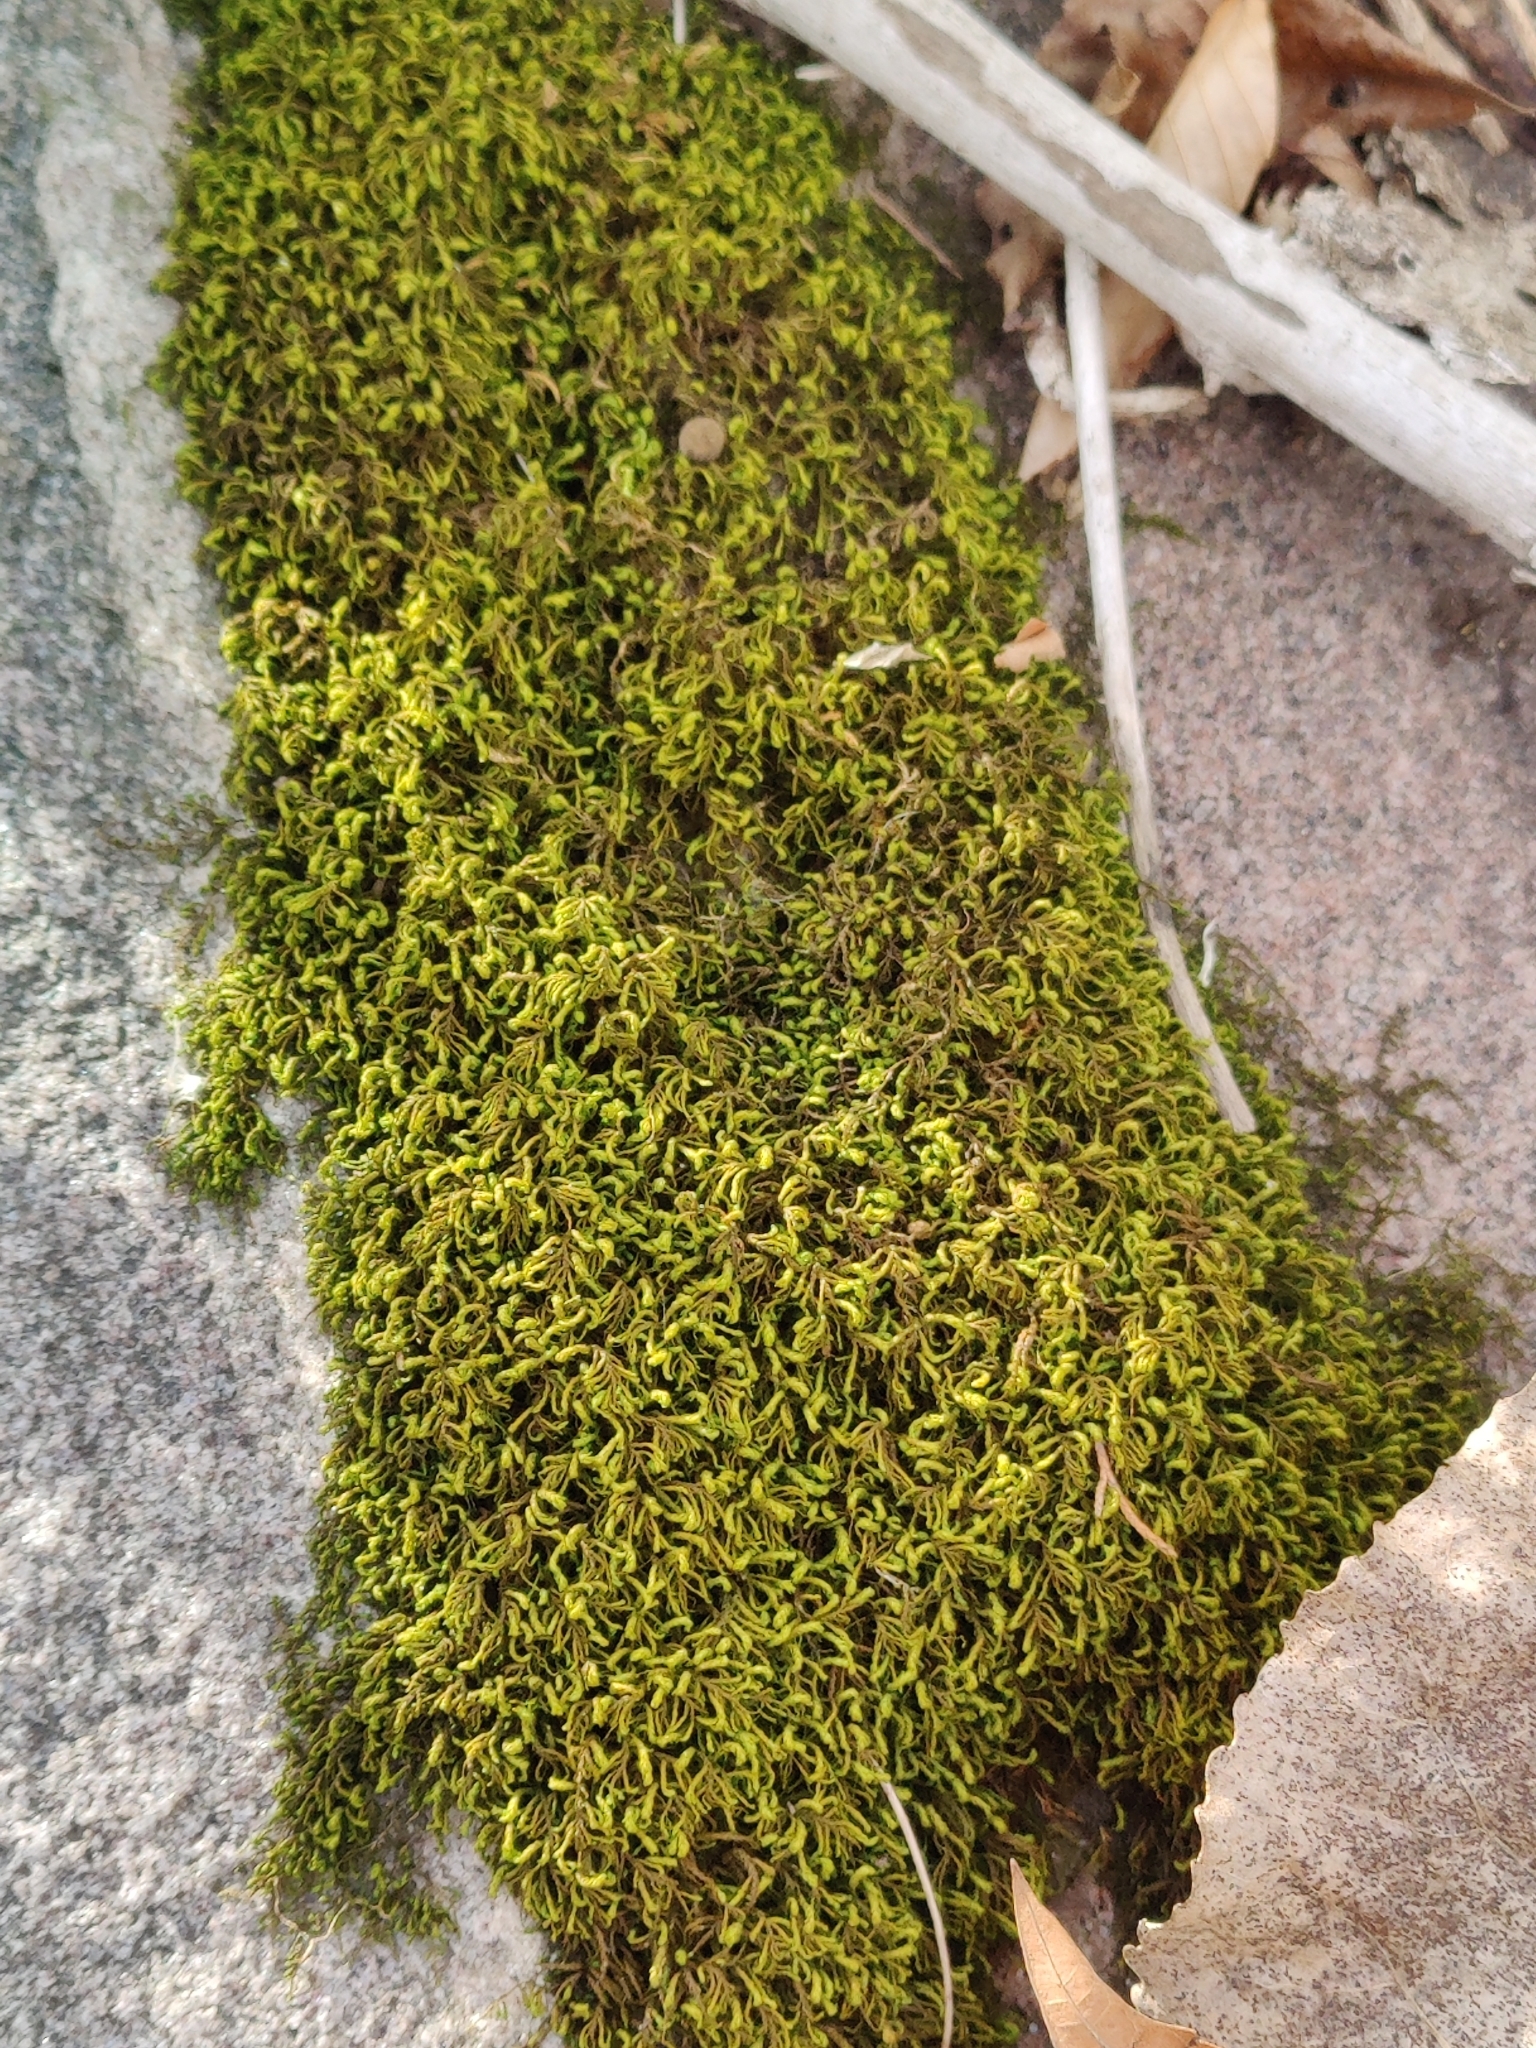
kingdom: Plantae
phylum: Bryophyta
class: Bryopsida
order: Hypnales
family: Neckeraceae
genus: Pseudanomodon
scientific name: Pseudanomodon attenuatus
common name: Tree-skirt moss
